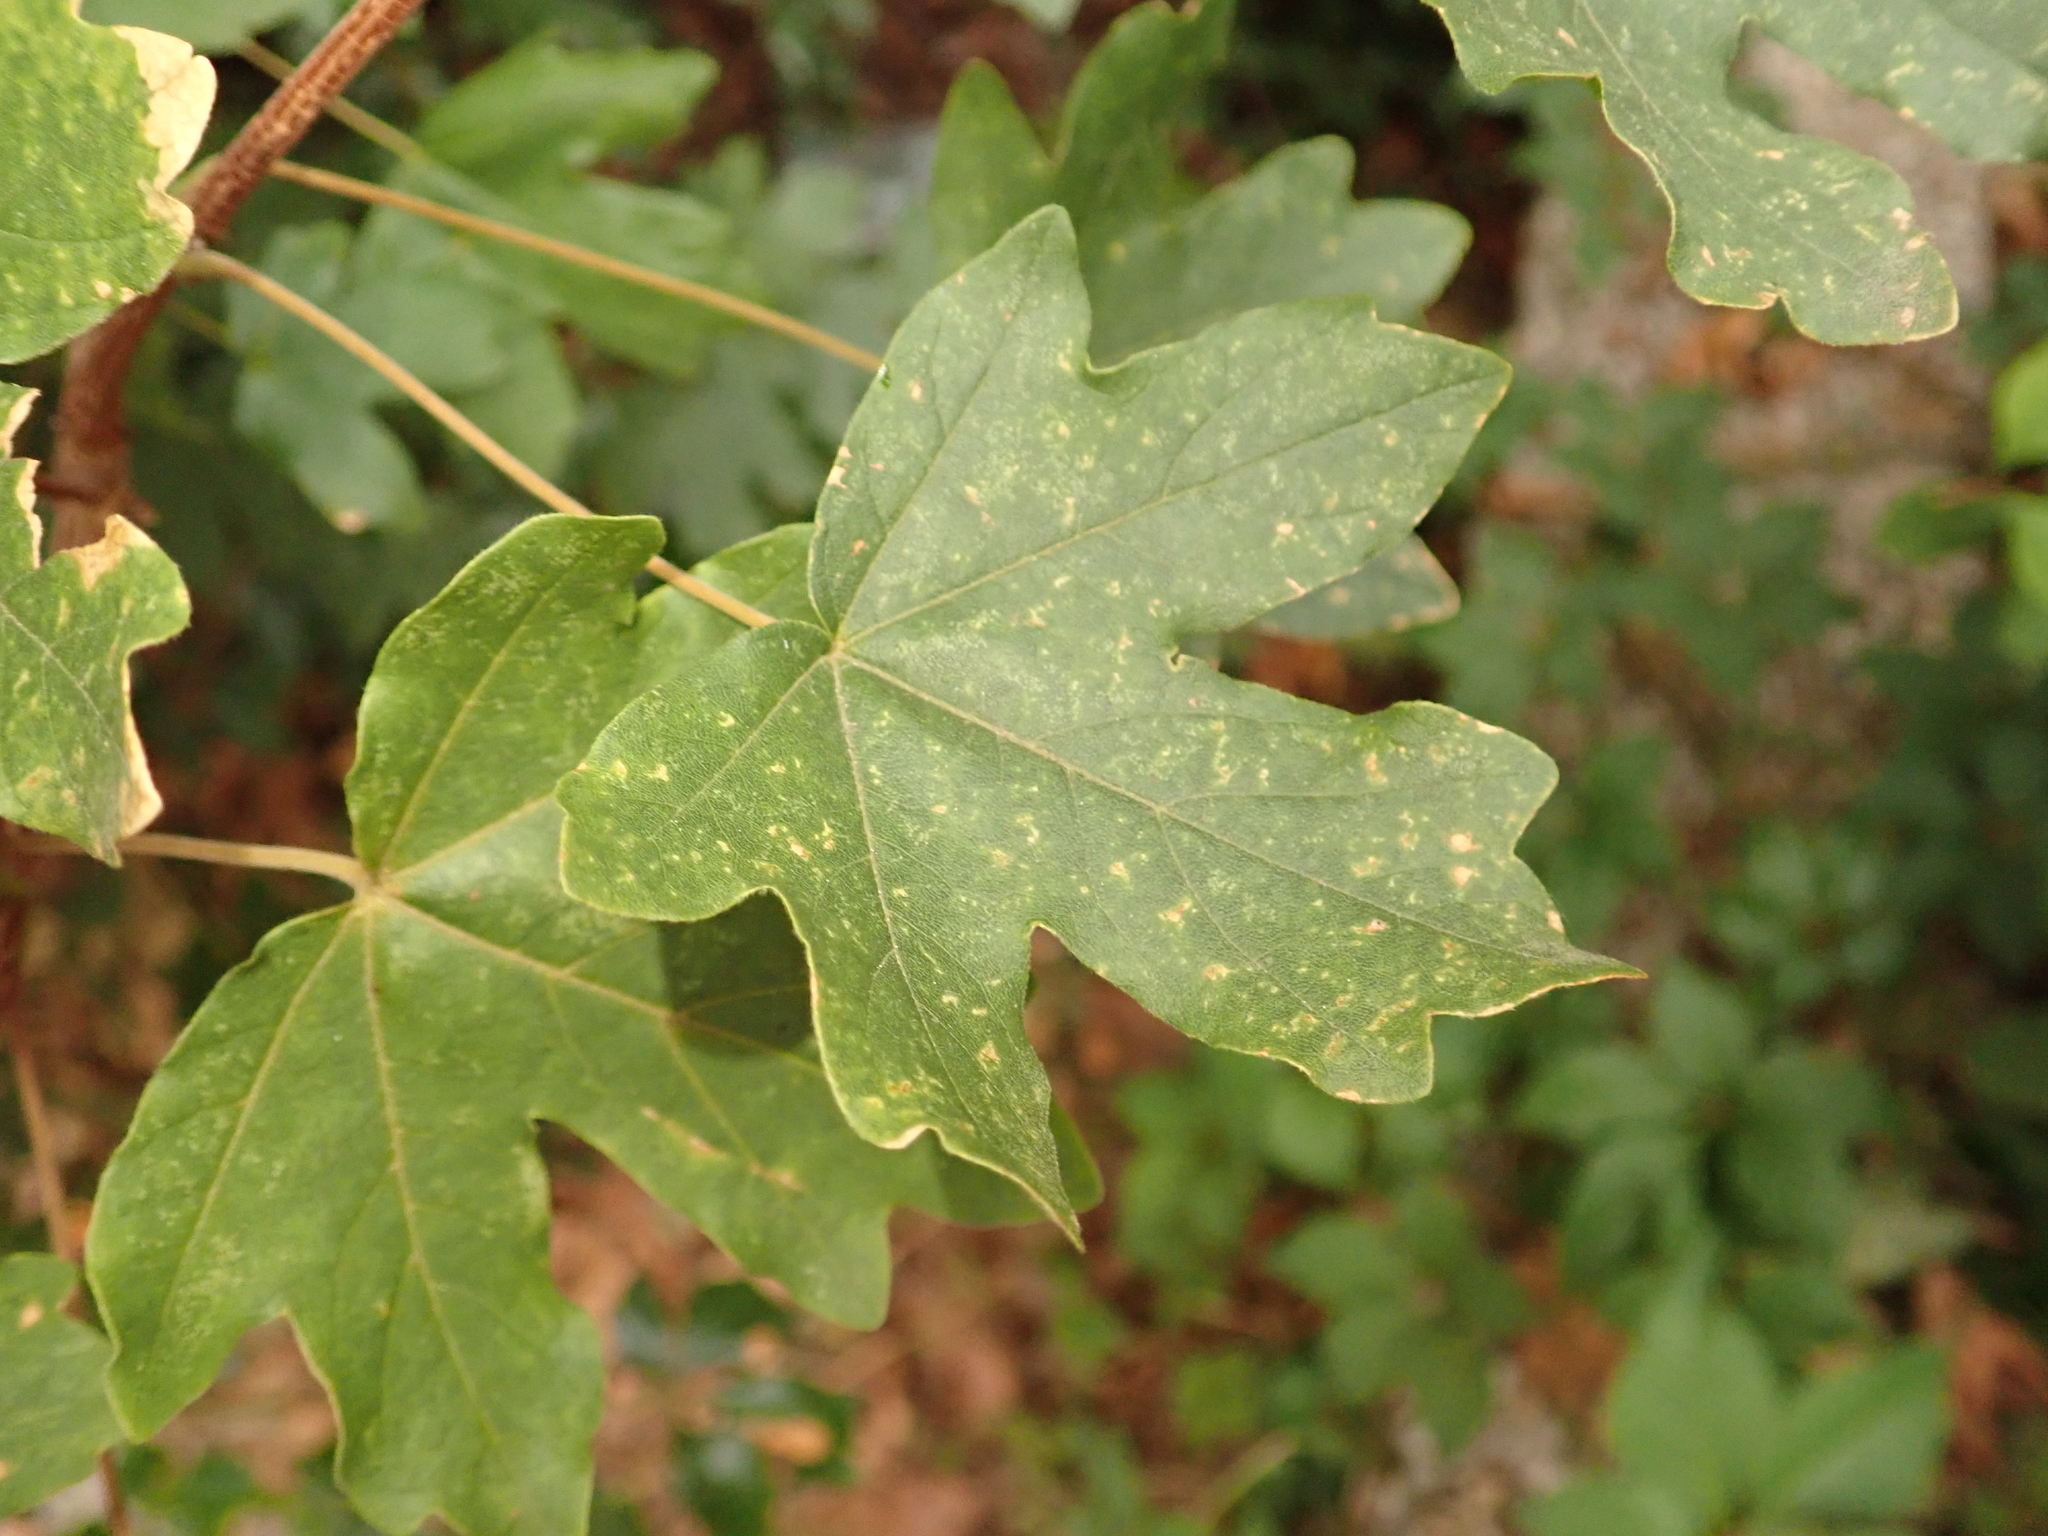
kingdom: Plantae
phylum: Tracheophyta
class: Magnoliopsida
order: Sapindales
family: Sapindaceae
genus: Acer
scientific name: Acer campestre
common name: Field maple
